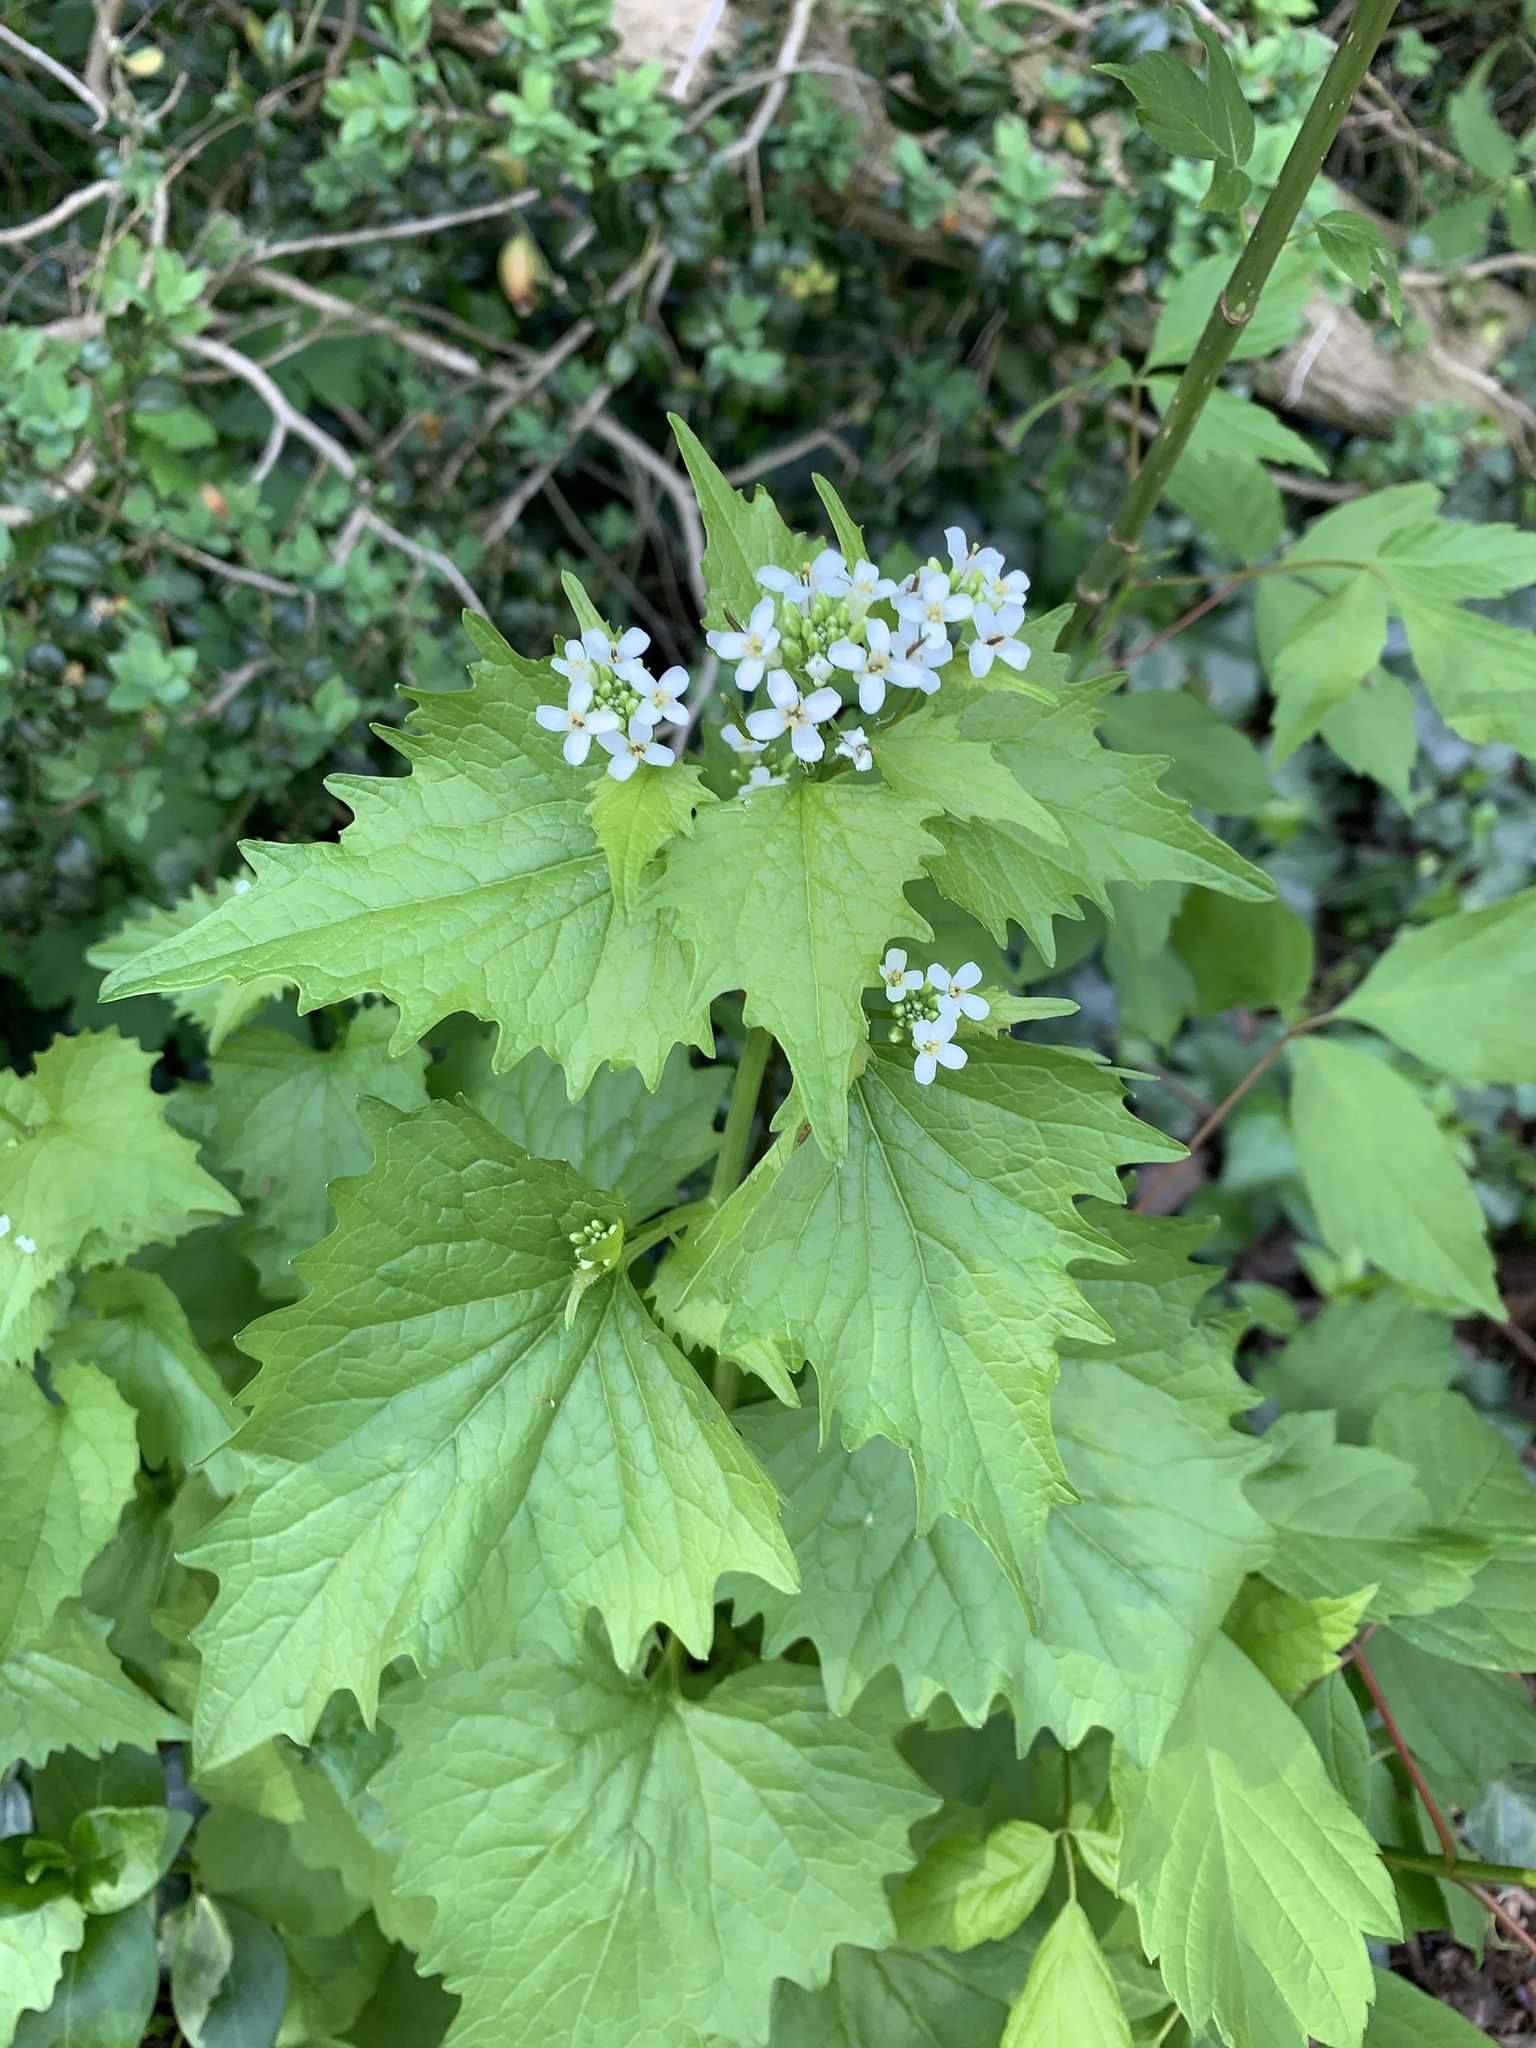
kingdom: Plantae
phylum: Tracheophyta
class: Magnoliopsida
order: Brassicales
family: Brassicaceae
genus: Alliaria
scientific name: Alliaria petiolata
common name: Garlic mustard
